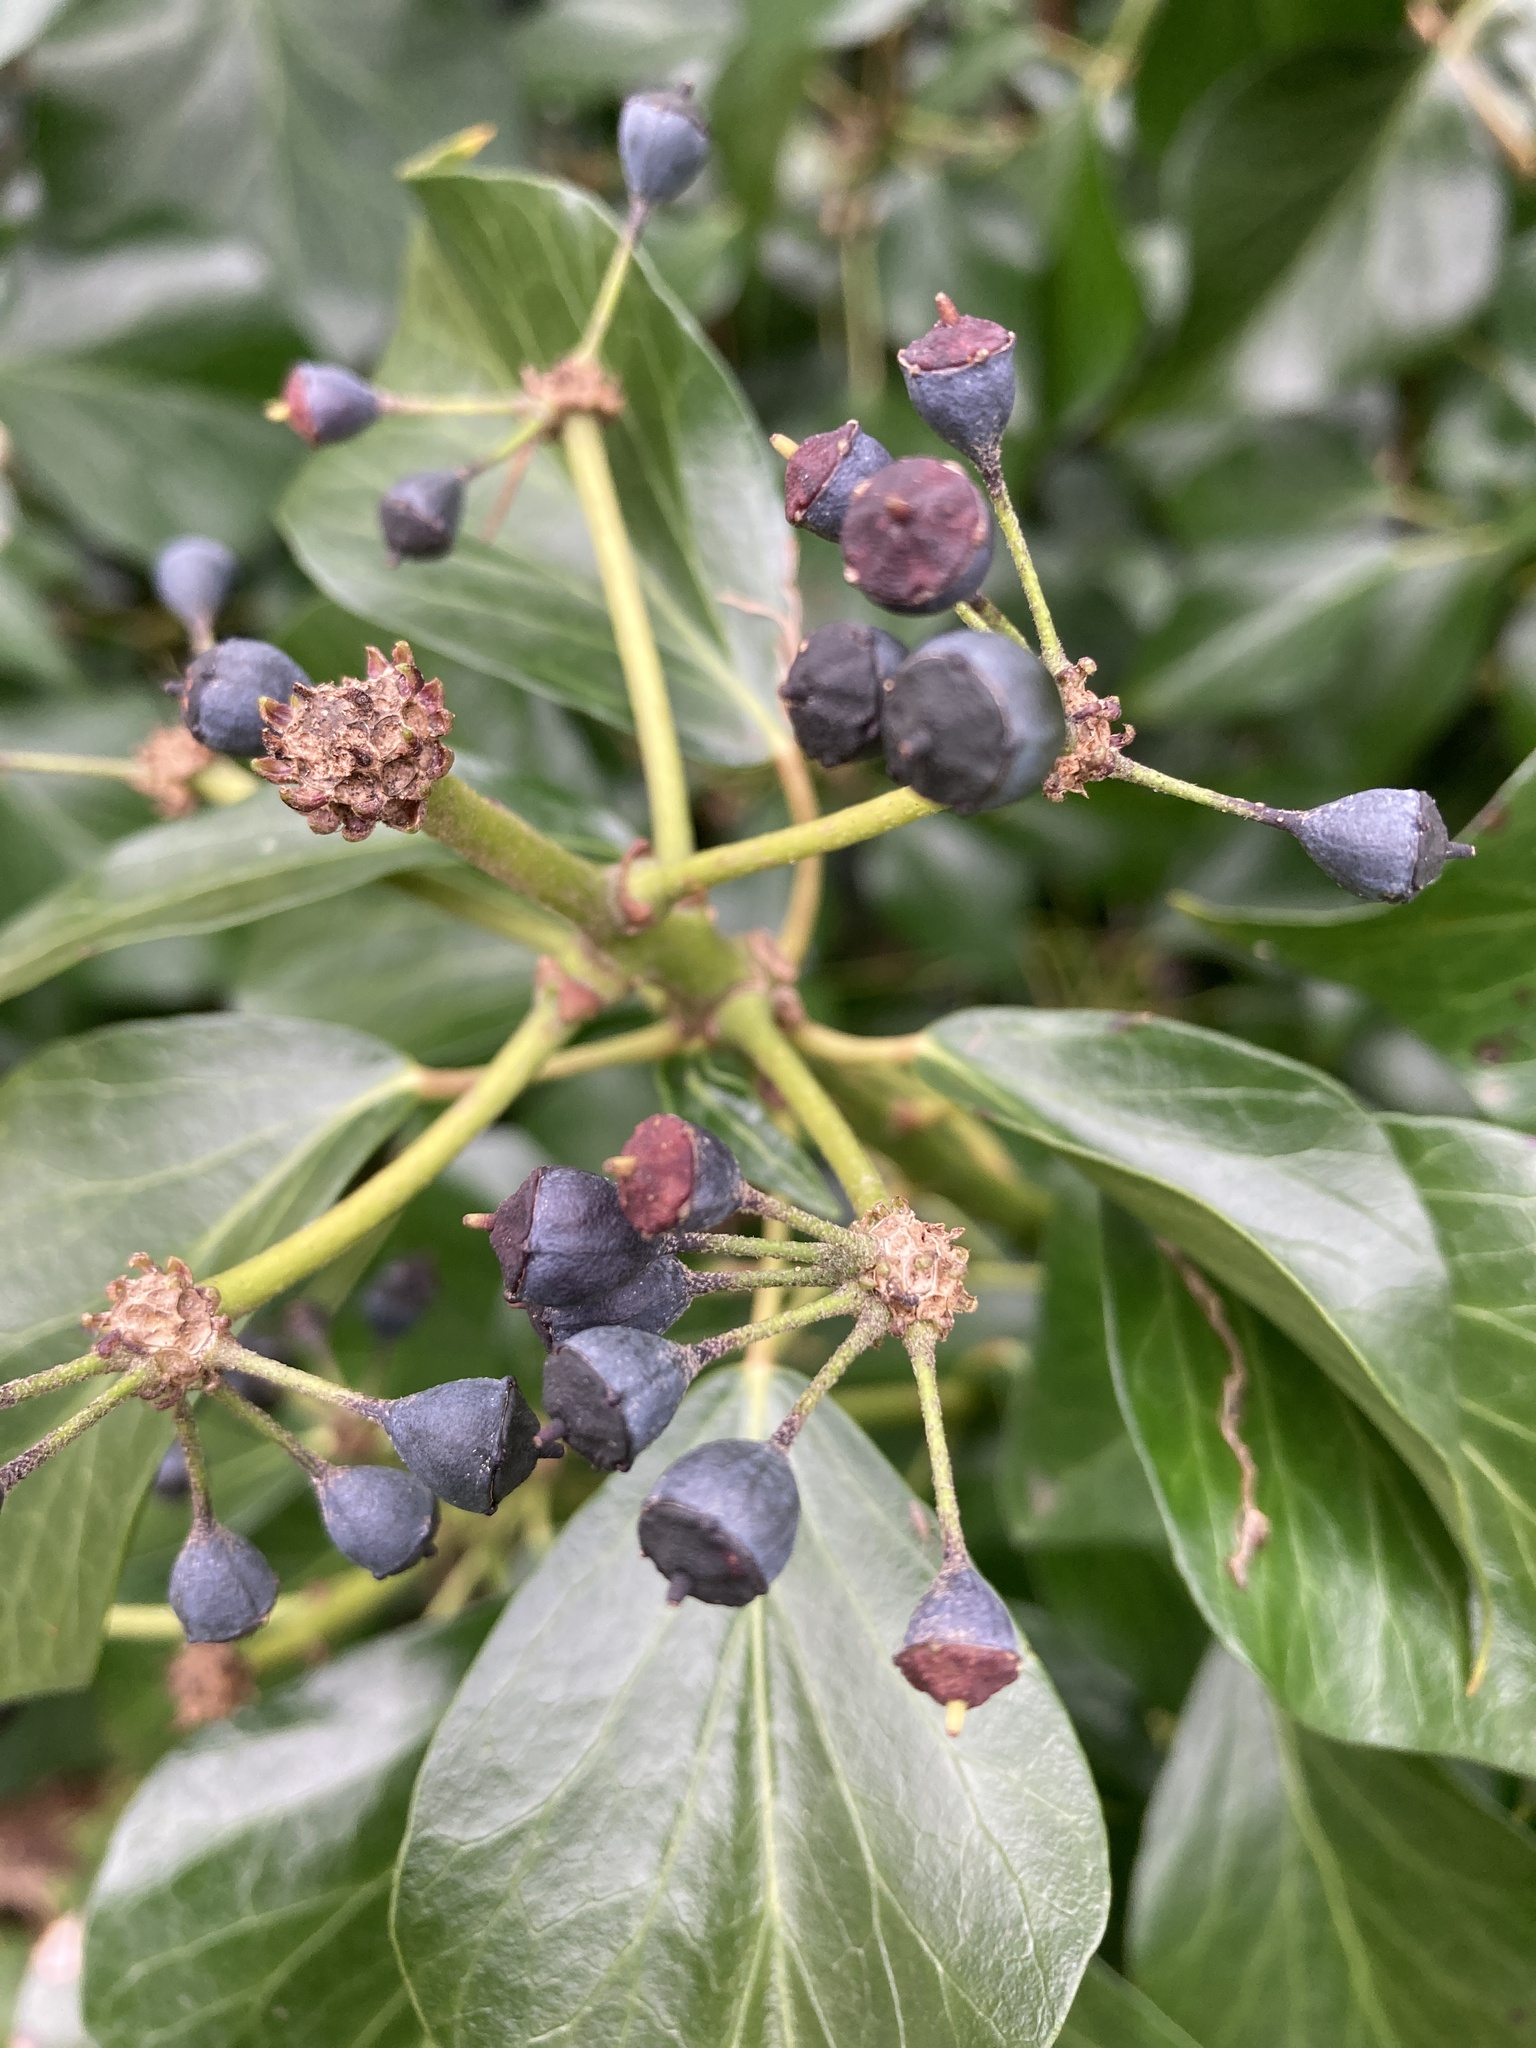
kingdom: Plantae
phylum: Tracheophyta
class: Magnoliopsida
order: Apiales
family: Araliaceae
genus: Hedera
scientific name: Hedera helix
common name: Ivy
